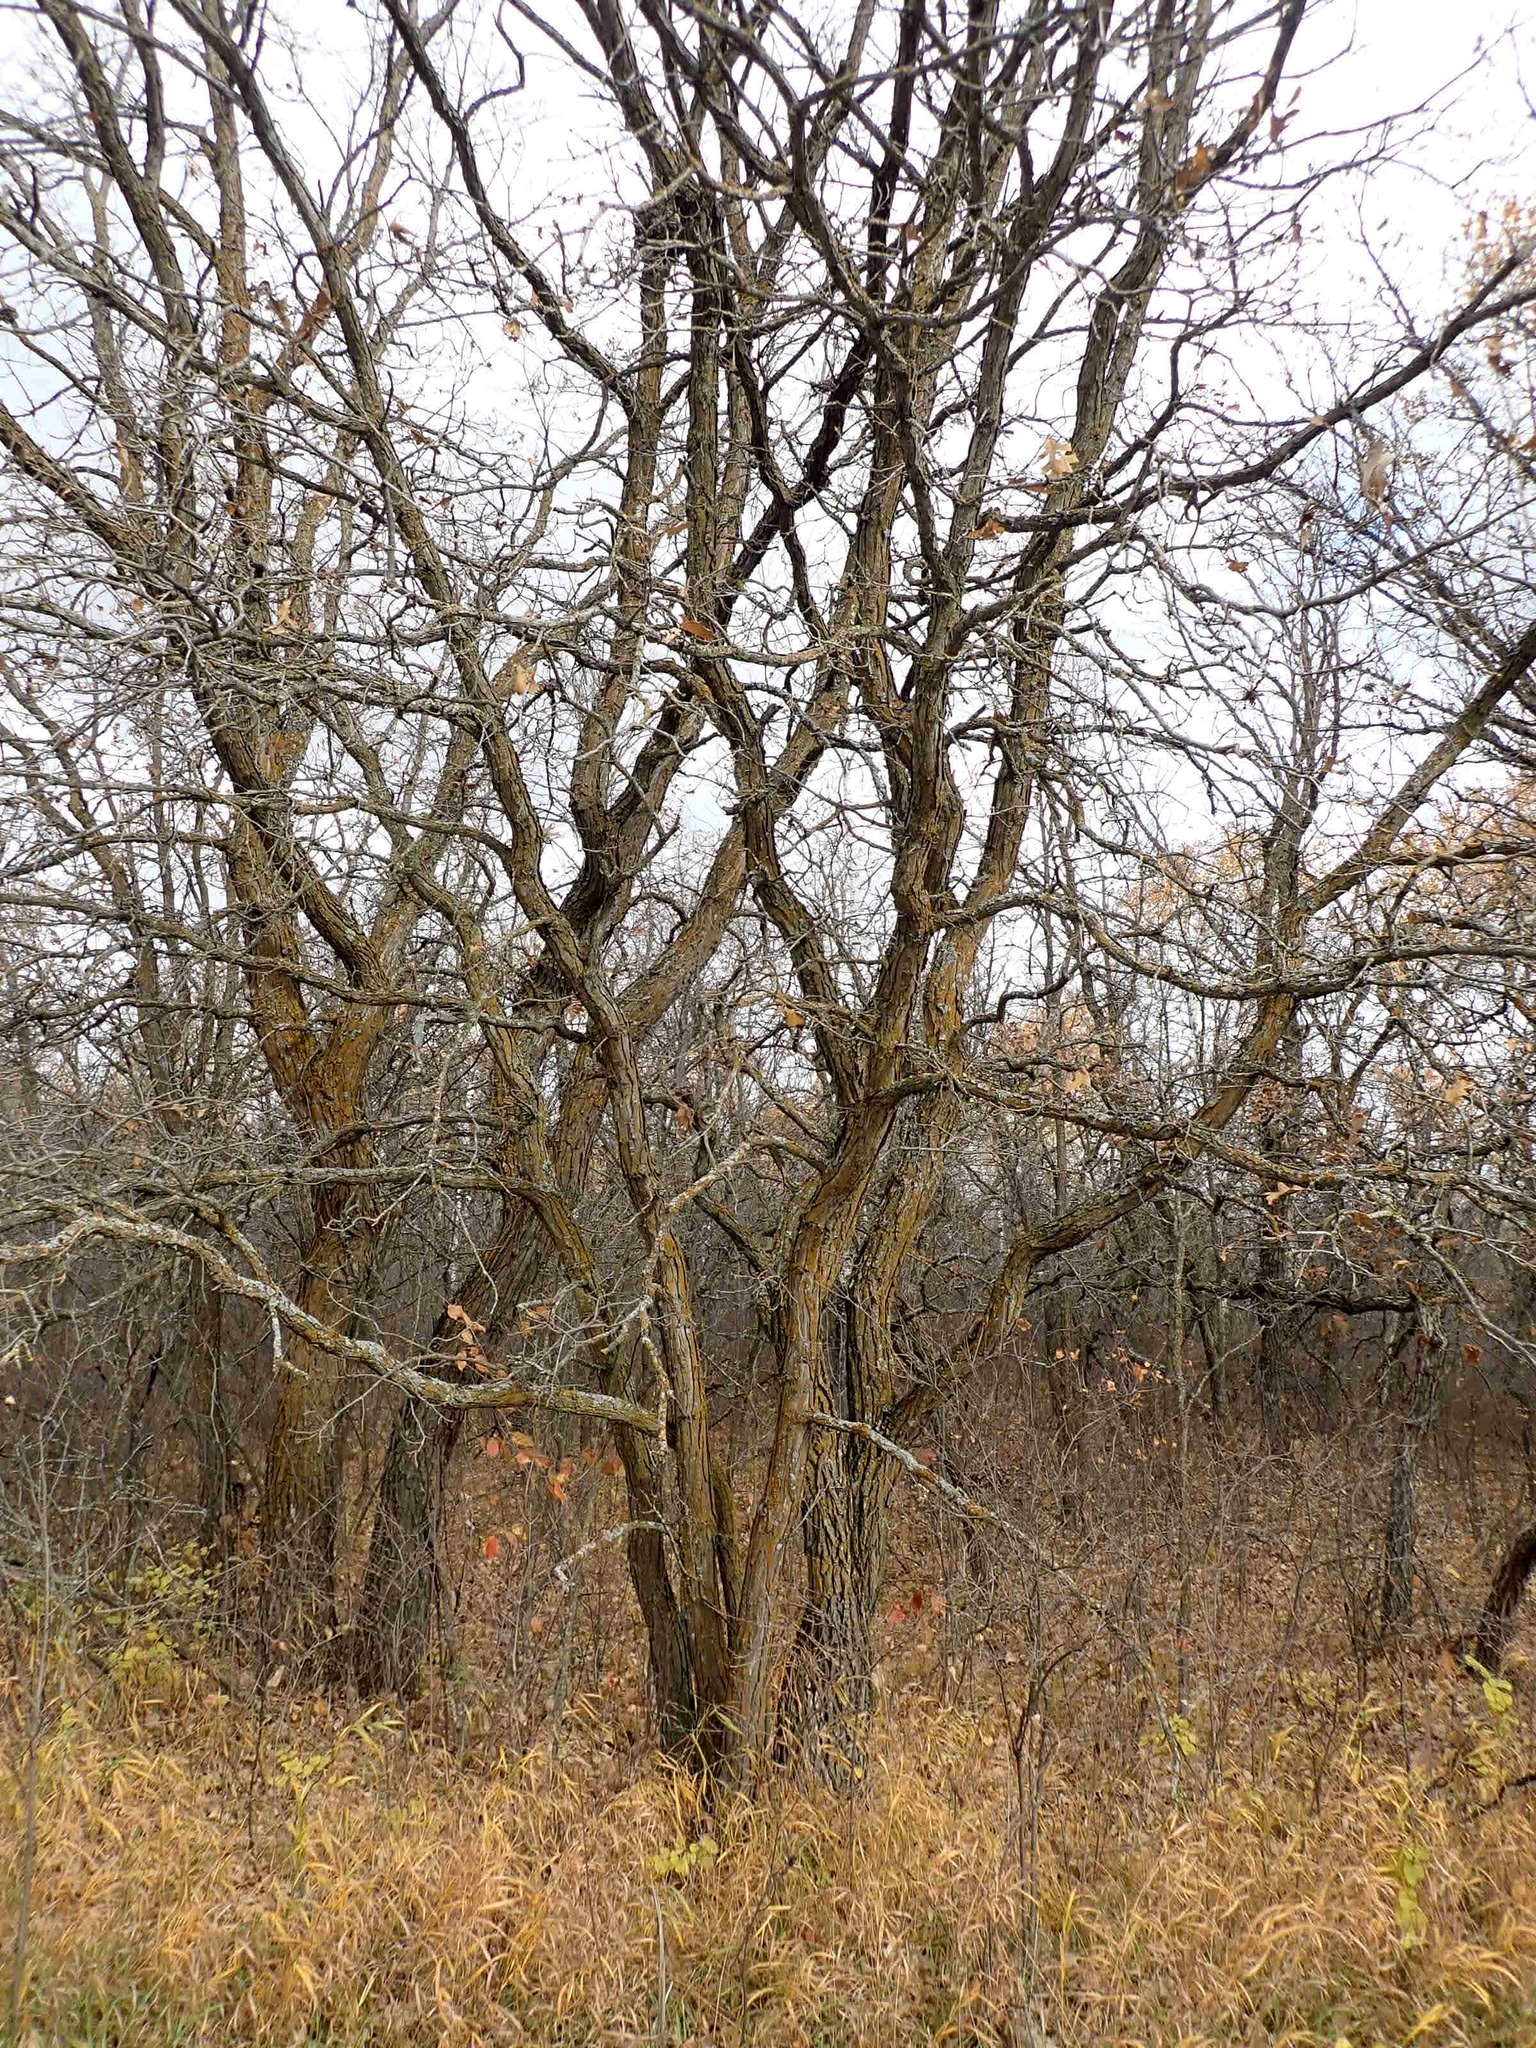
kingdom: Plantae
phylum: Tracheophyta
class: Magnoliopsida
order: Fagales
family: Fagaceae
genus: Quercus
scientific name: Quercus macrocarpa
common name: Bur oak
